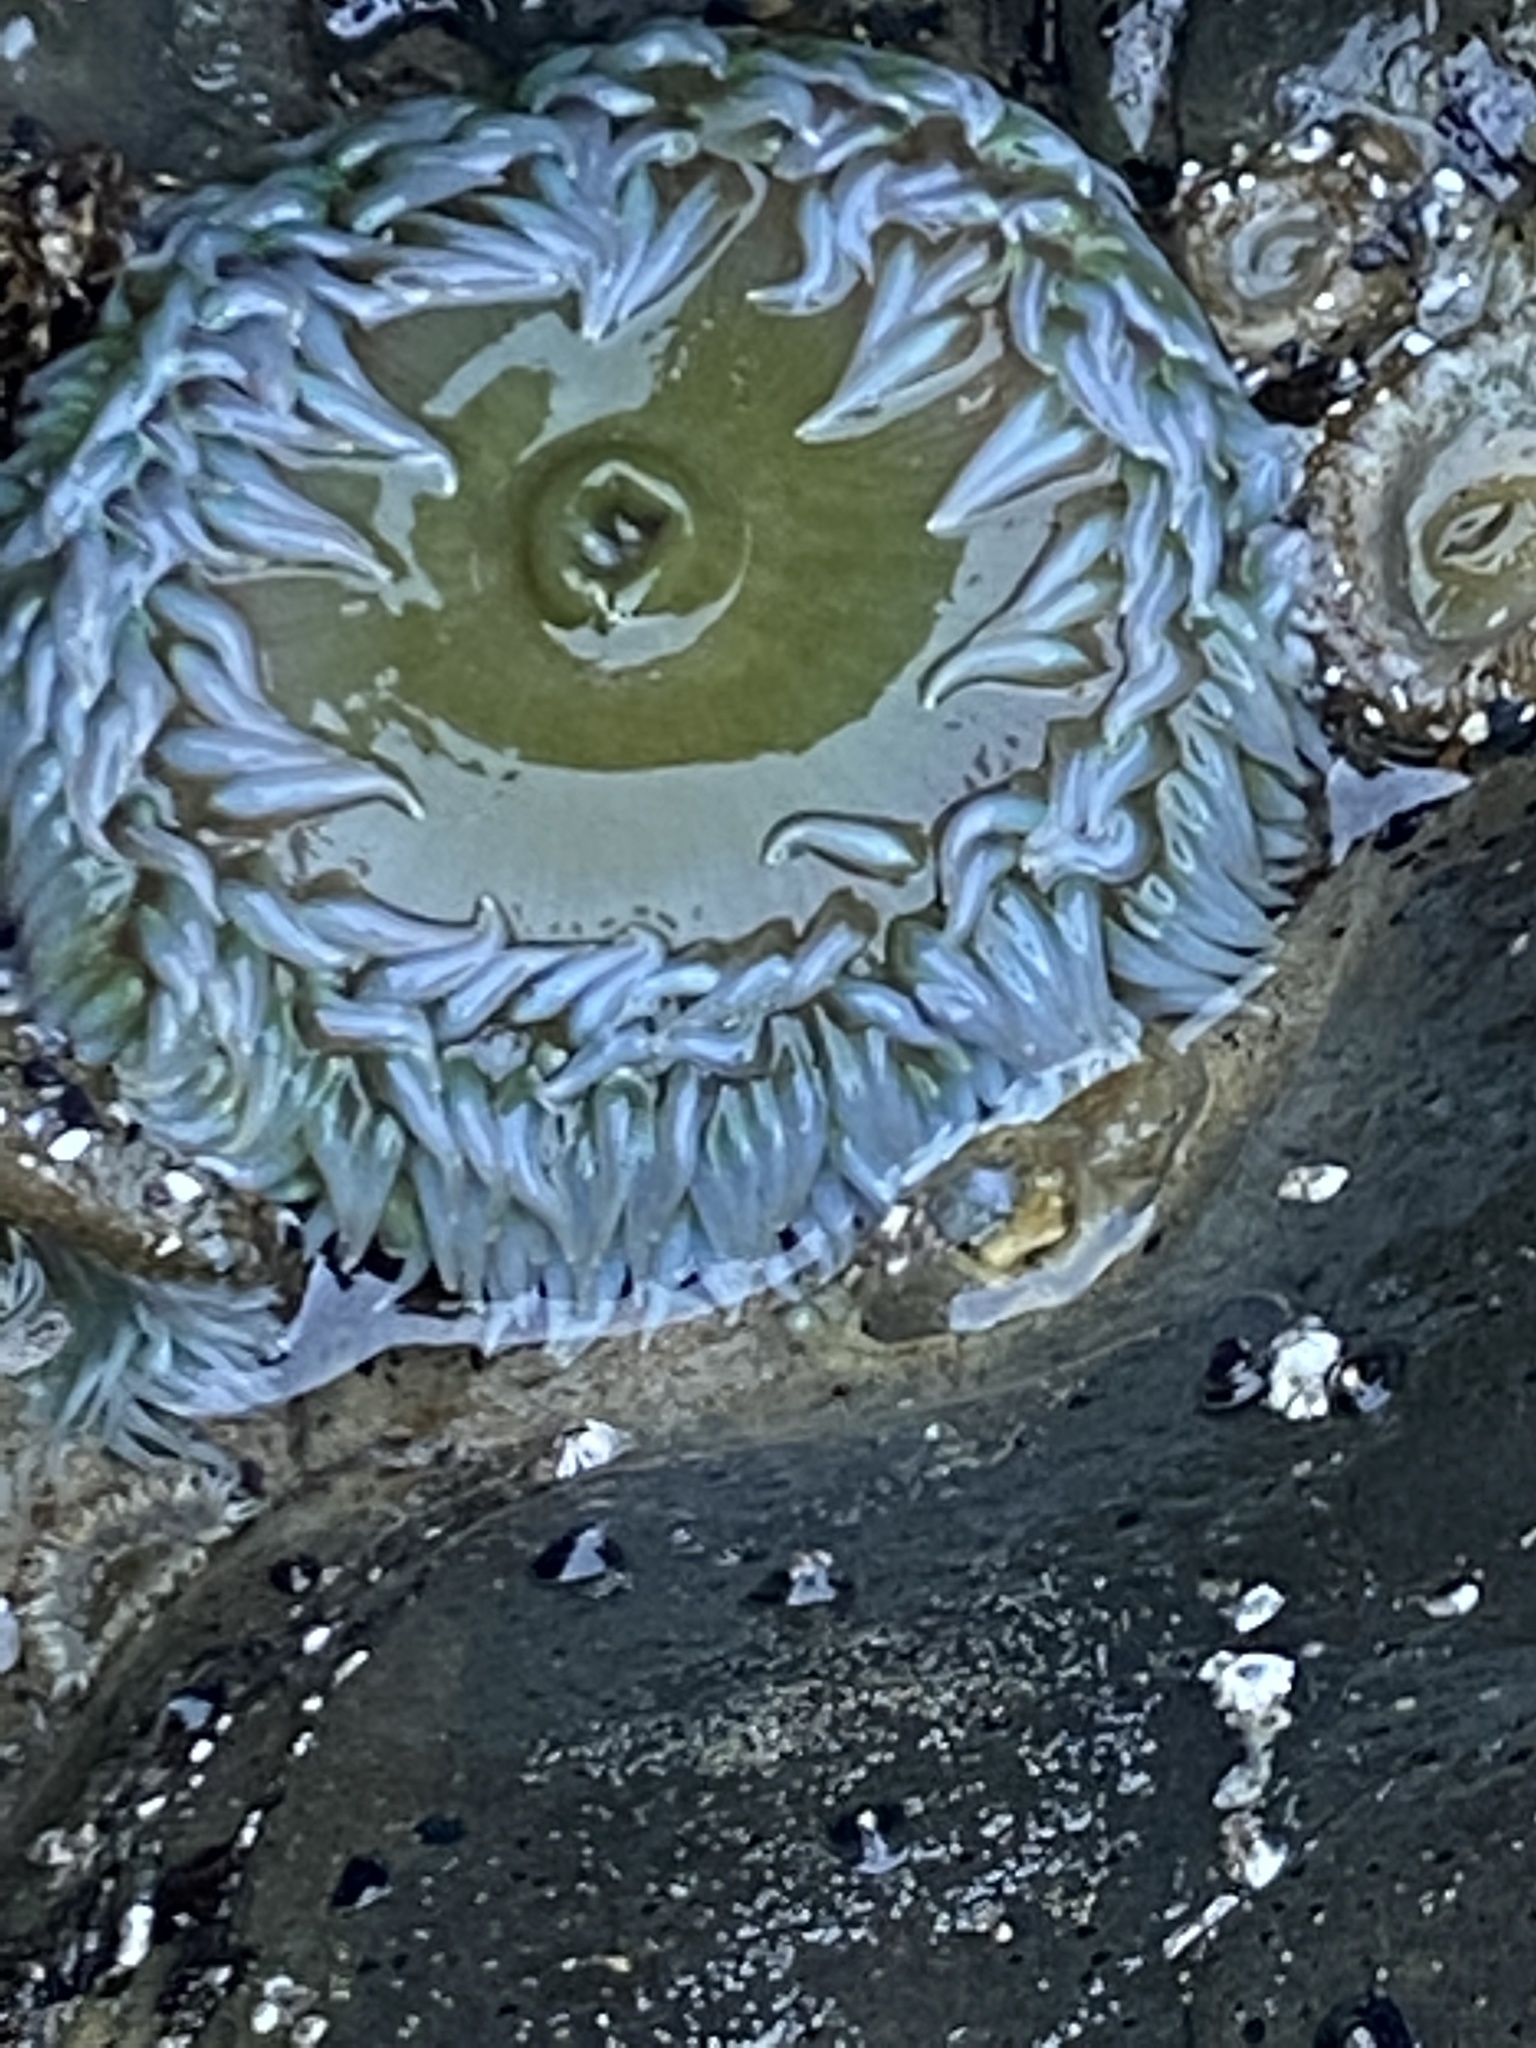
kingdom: Animalia
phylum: Cnidaria
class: Anthozoa
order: Actiniaria
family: Actiniidae
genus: Anthopleura
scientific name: Anthopleura xanthogrammica
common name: Giant green anemone
